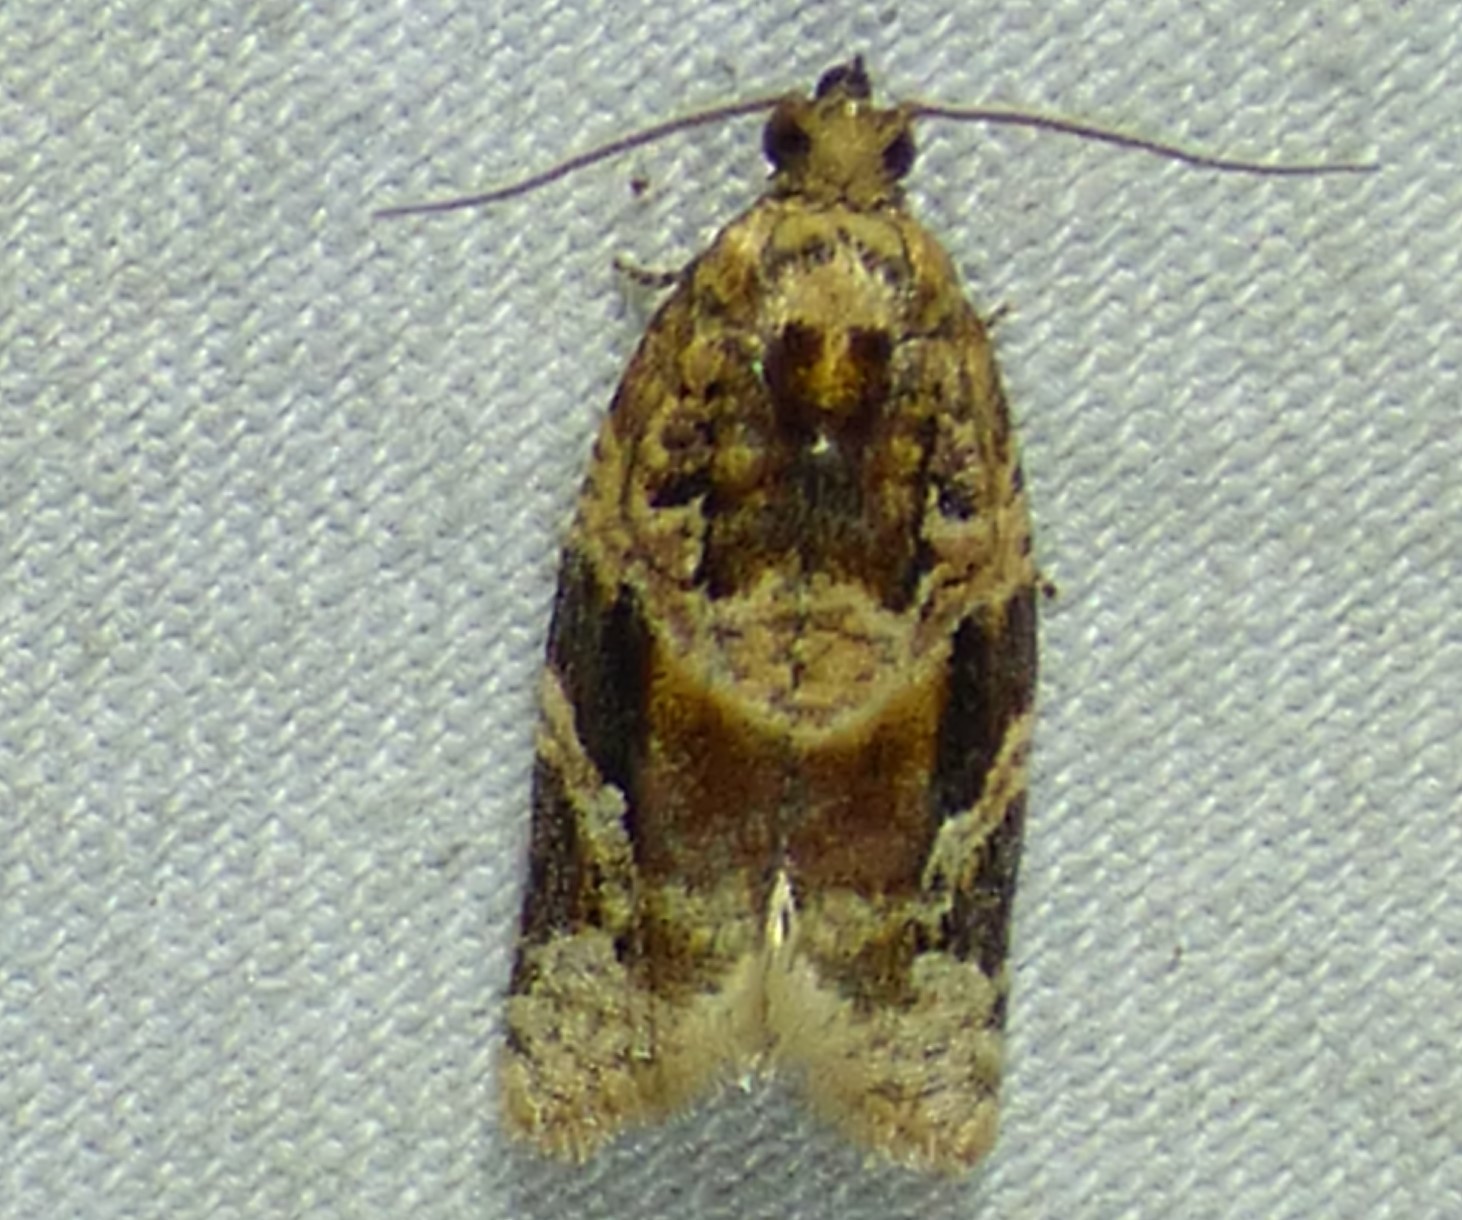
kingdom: Animalia
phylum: Arthropoda
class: Insecta
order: Lepidoptera
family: Tortricidae
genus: Argyrotaenia
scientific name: Argyrotaenia velutinana
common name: Red-banded leafroller moth
